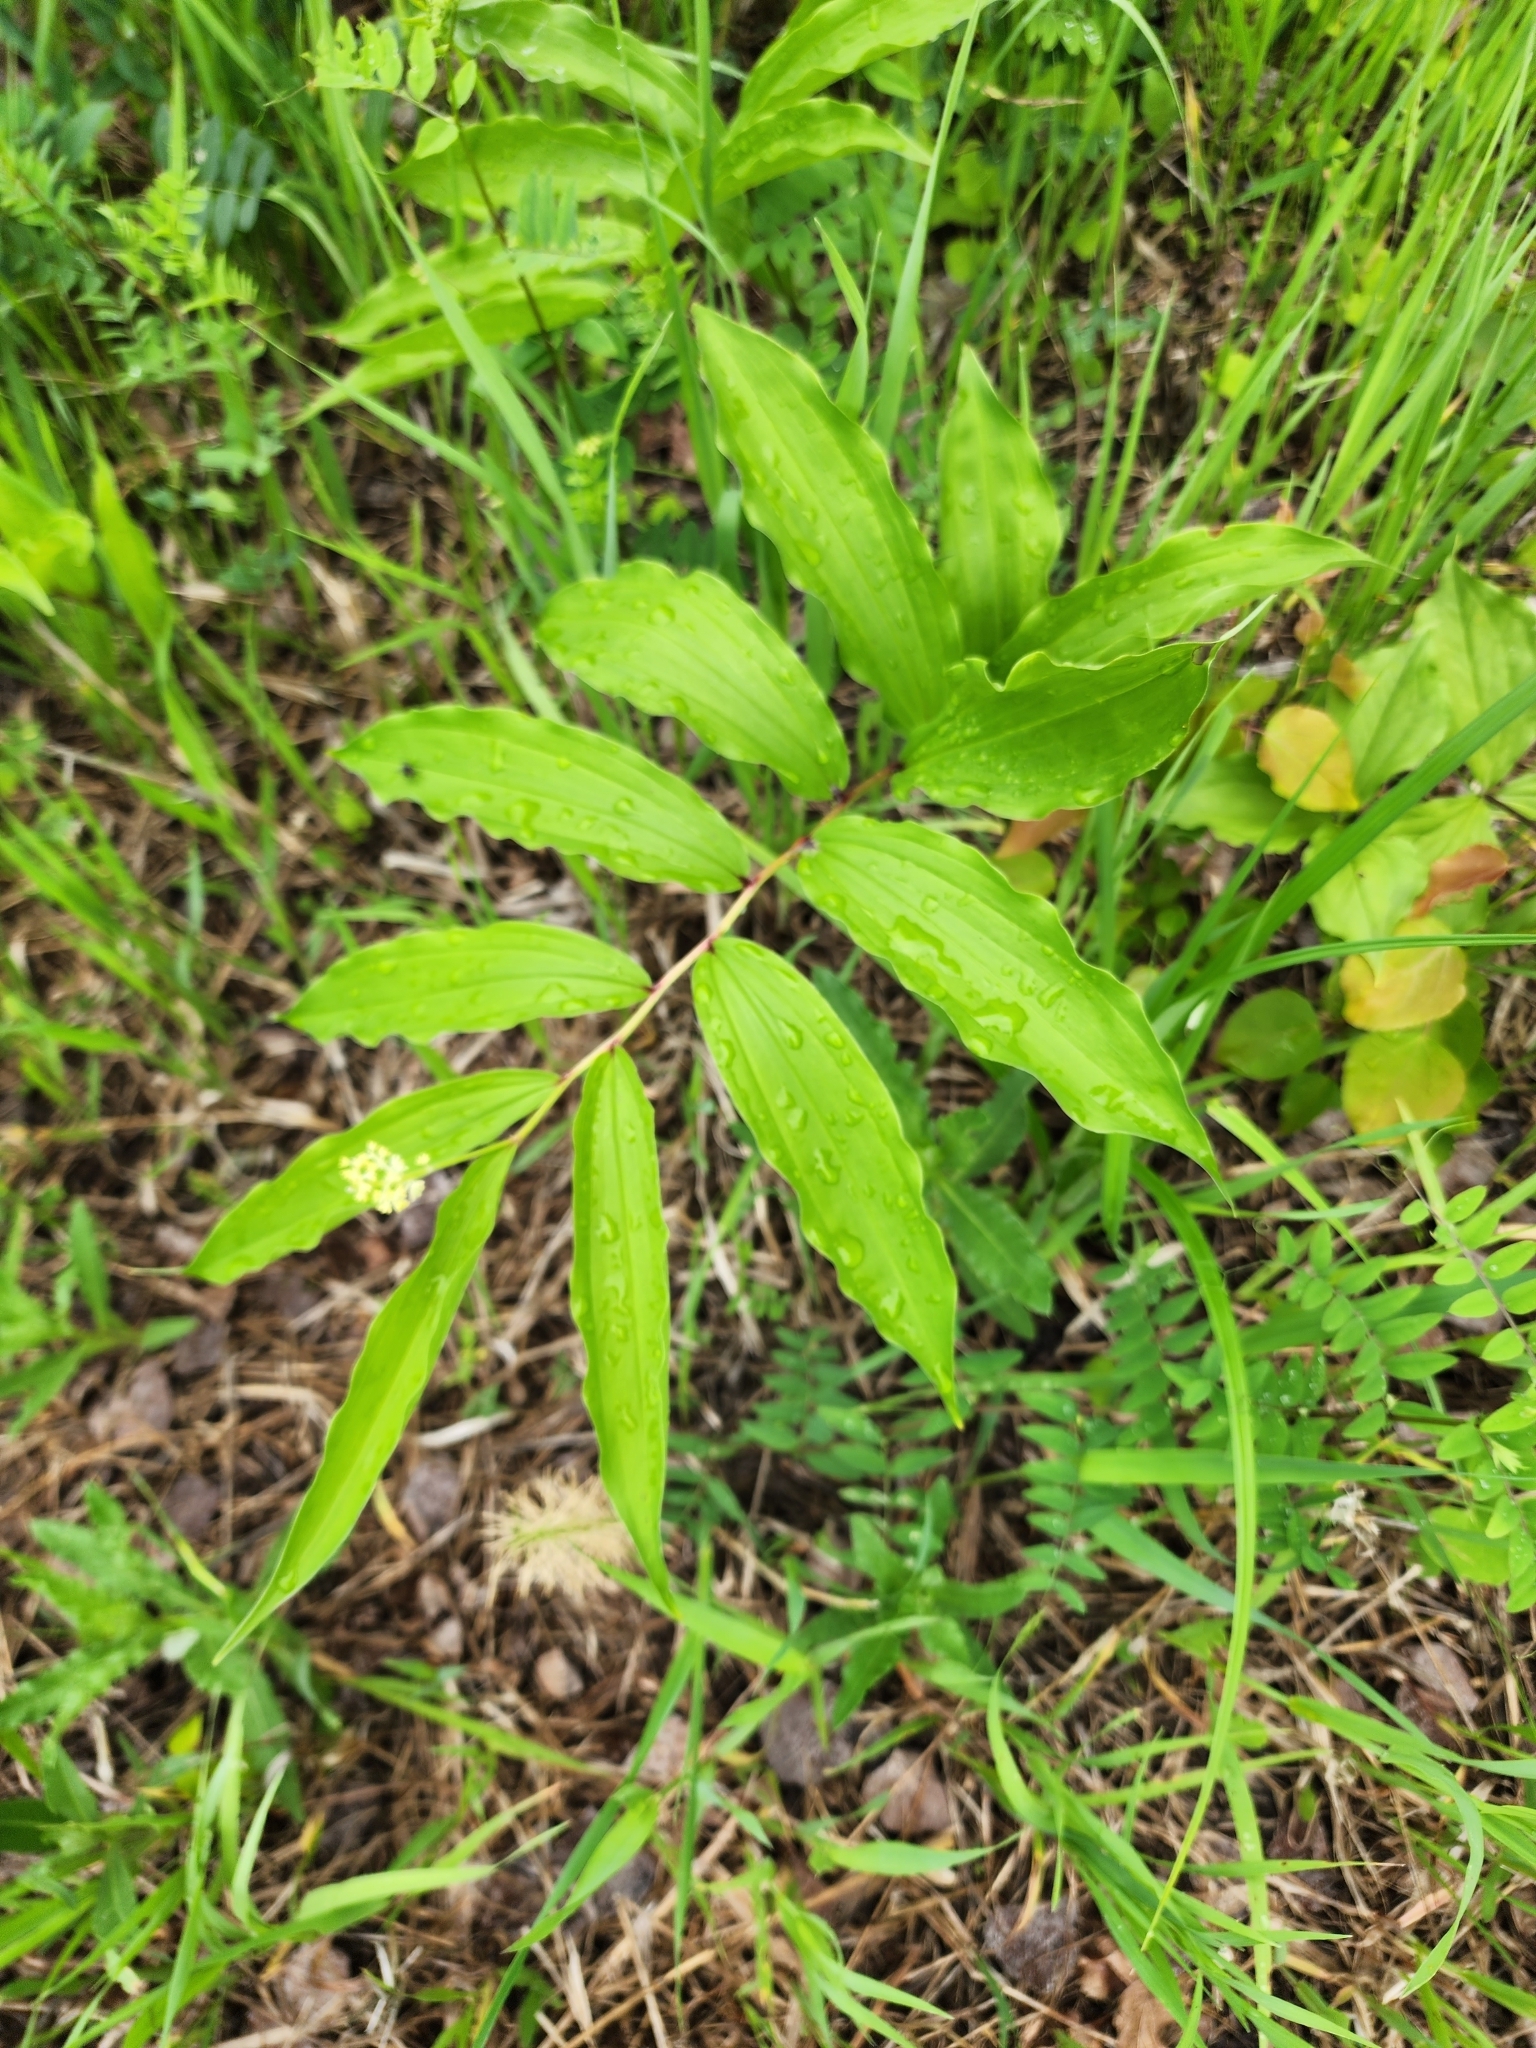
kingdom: Plantae
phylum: Tracheophyta
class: Liliopsida
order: Asparagales
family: Asparagaceae
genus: Maianthemum
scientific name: Maianthemum racemosum
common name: False spikenard
